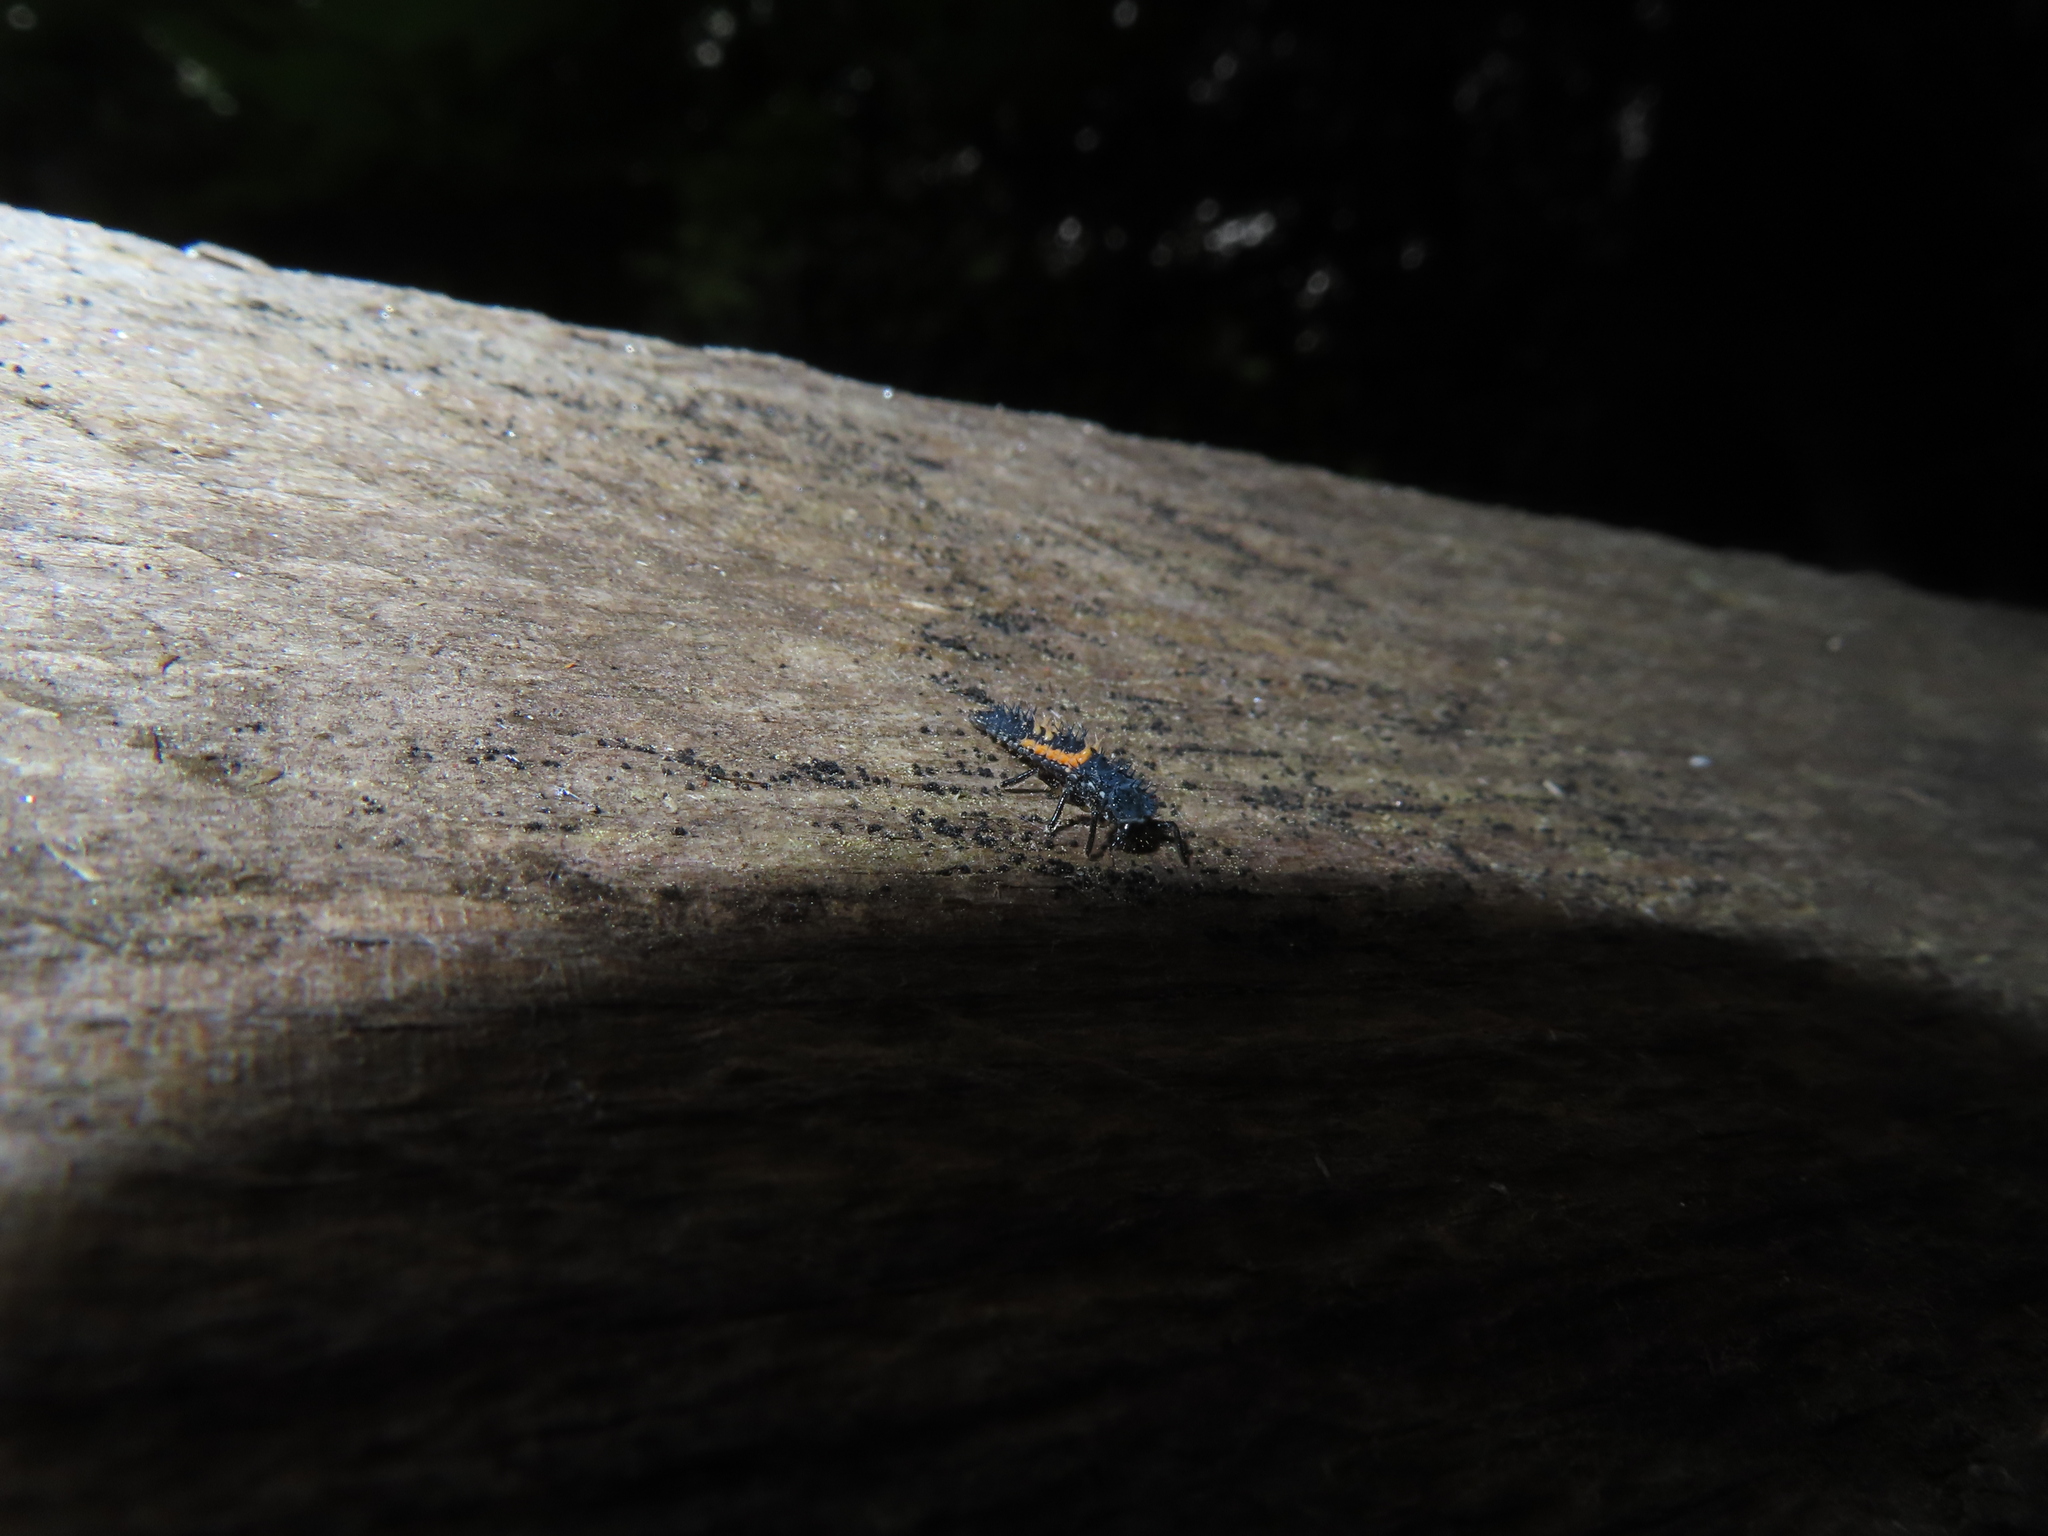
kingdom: Animalia
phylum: Arthropoda
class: Insecta
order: Coleoptera
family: Coccinellidae
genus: Harmonia
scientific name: Harmonia axyridis
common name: Harlequin ladybird
